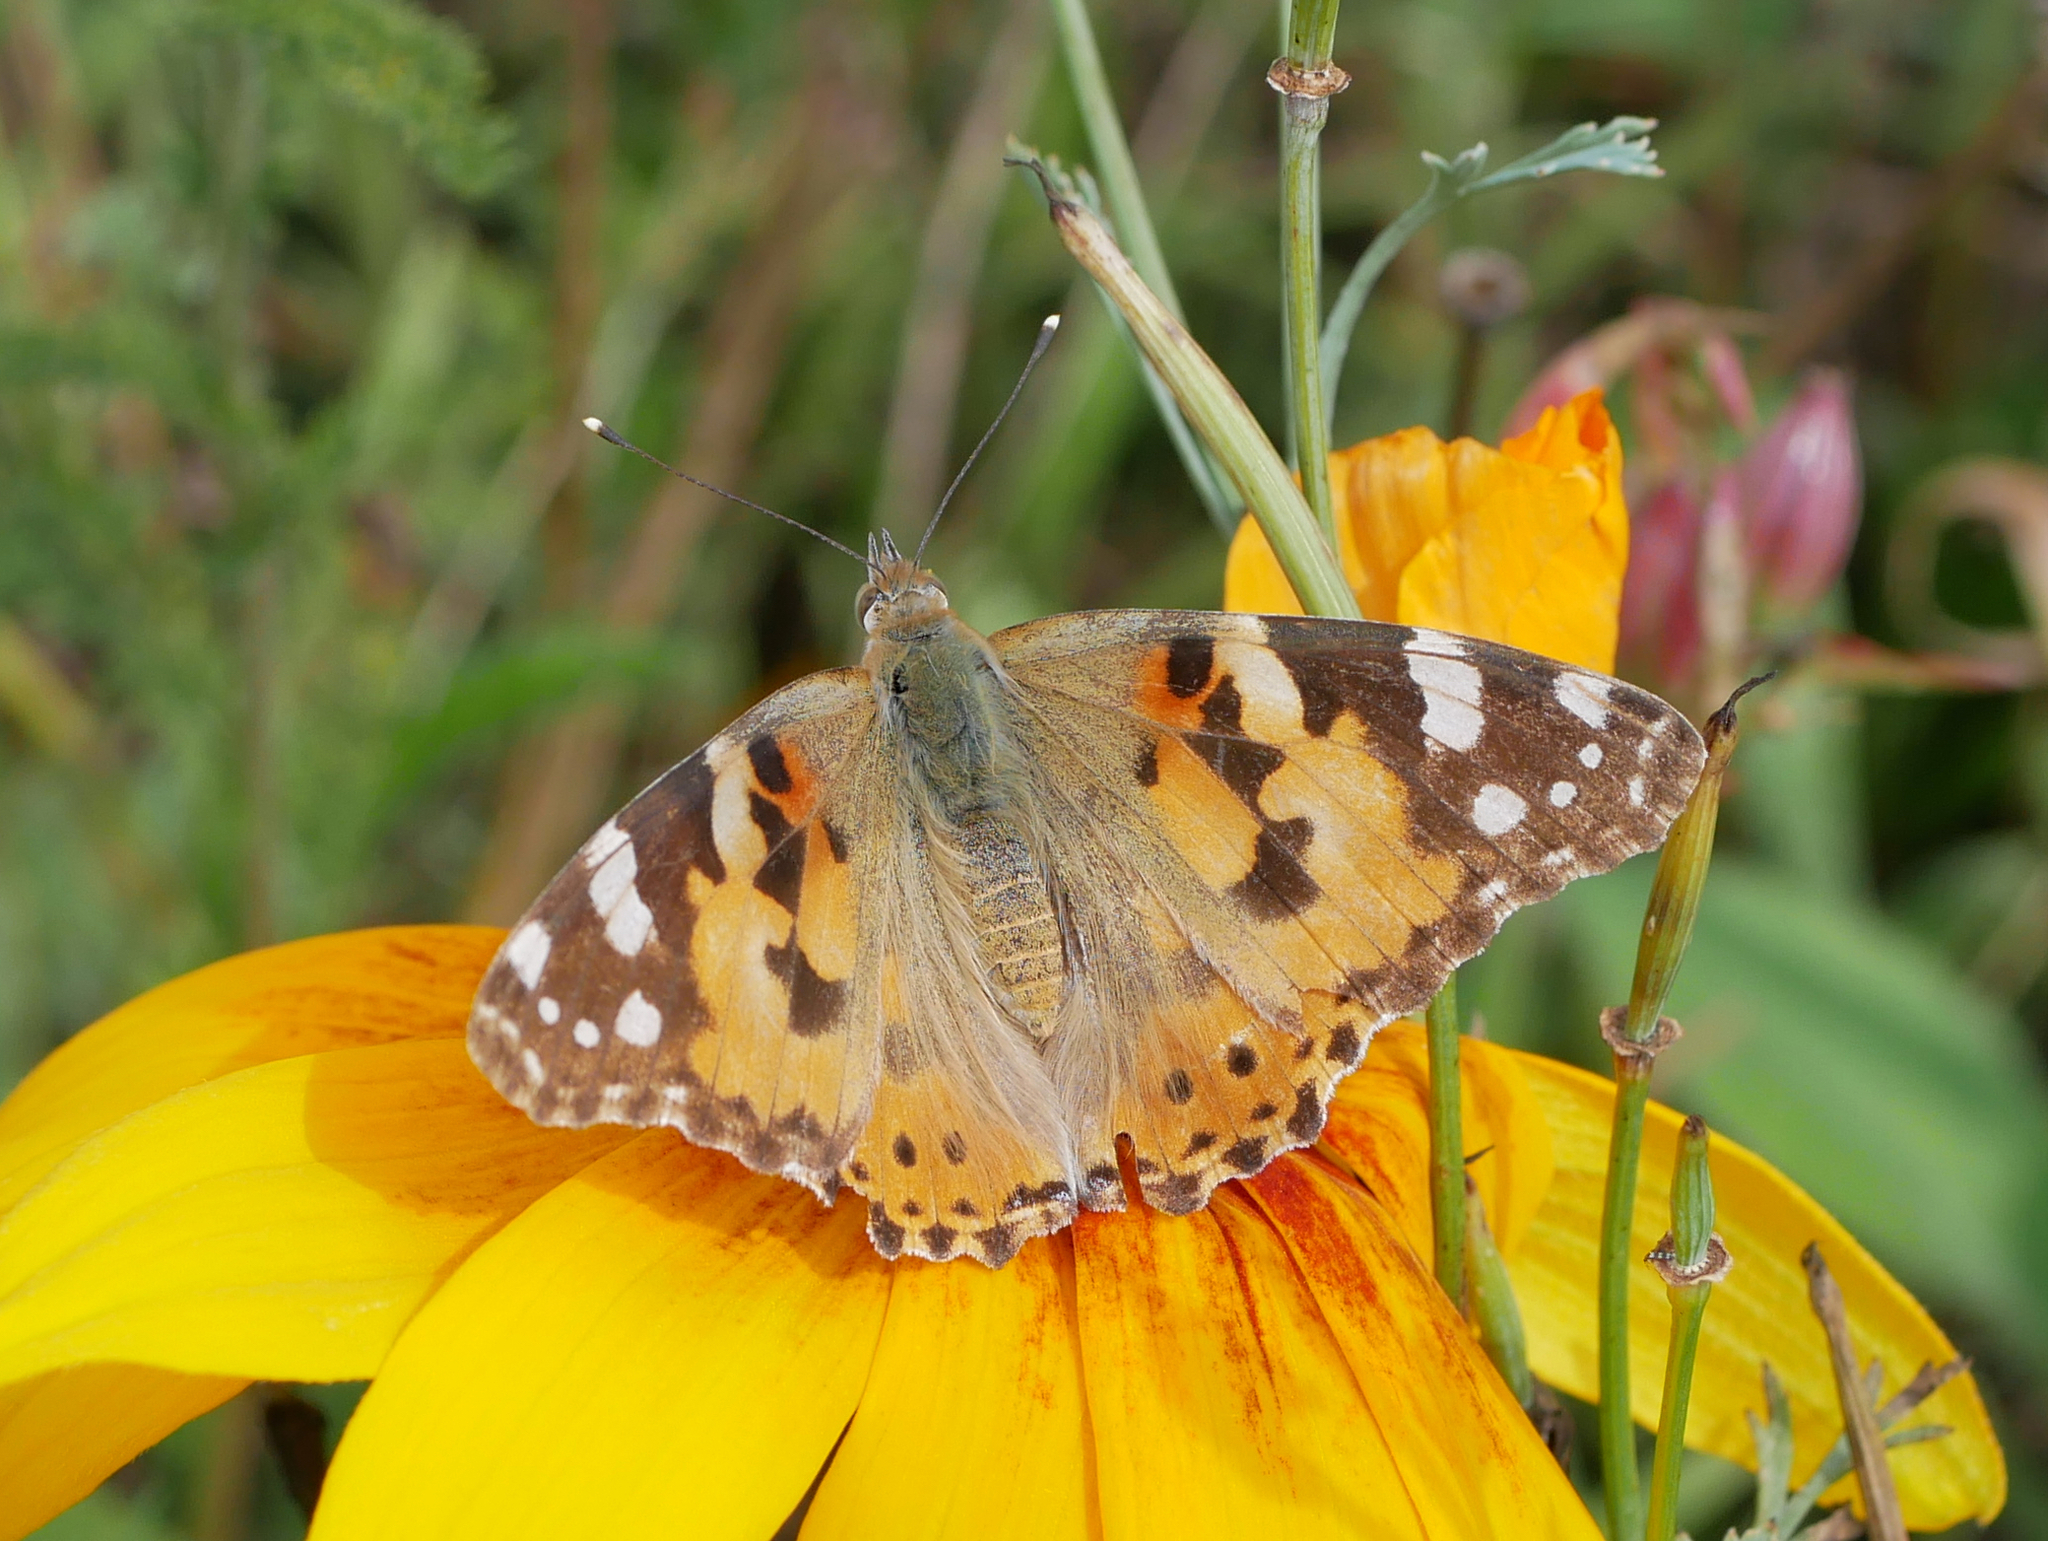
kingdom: Animalia
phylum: Arthropoda
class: Insecta
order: Lepidoptera
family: Nymphalidae
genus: Vanessa
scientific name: Vanessa cardui
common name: Painted lady
